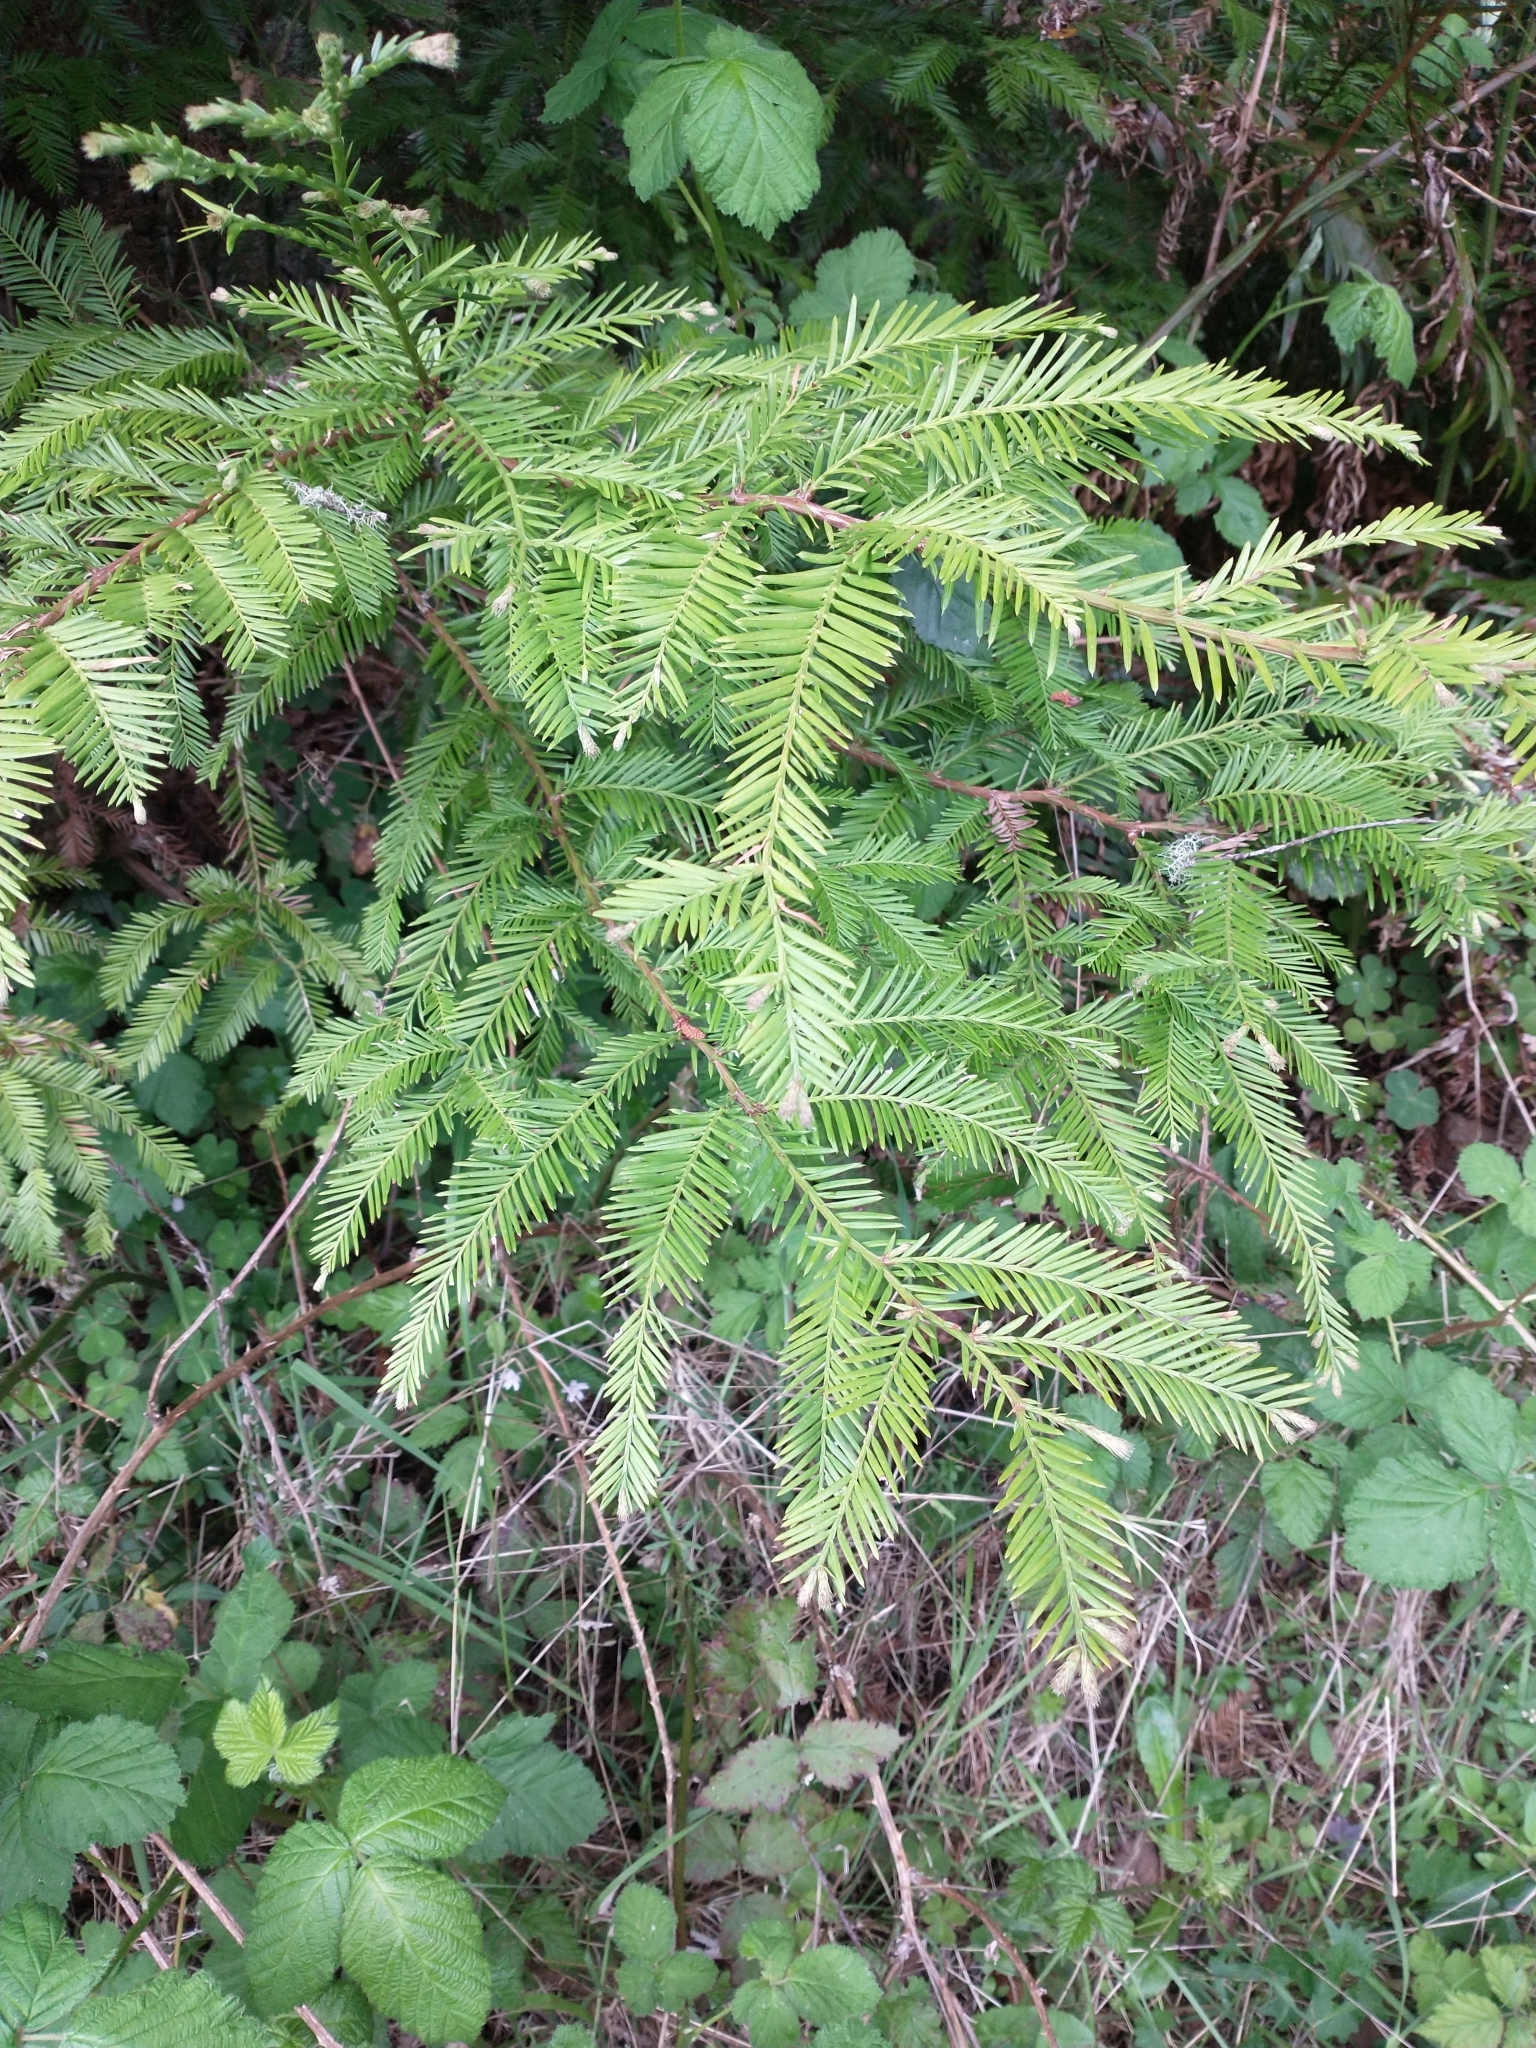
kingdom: Plantae
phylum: Tracheophyta
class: Pinopsida
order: Pinales
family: Cupressaceae
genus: Sequoia
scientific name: Sequoia sempervirens
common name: Coast redwood
